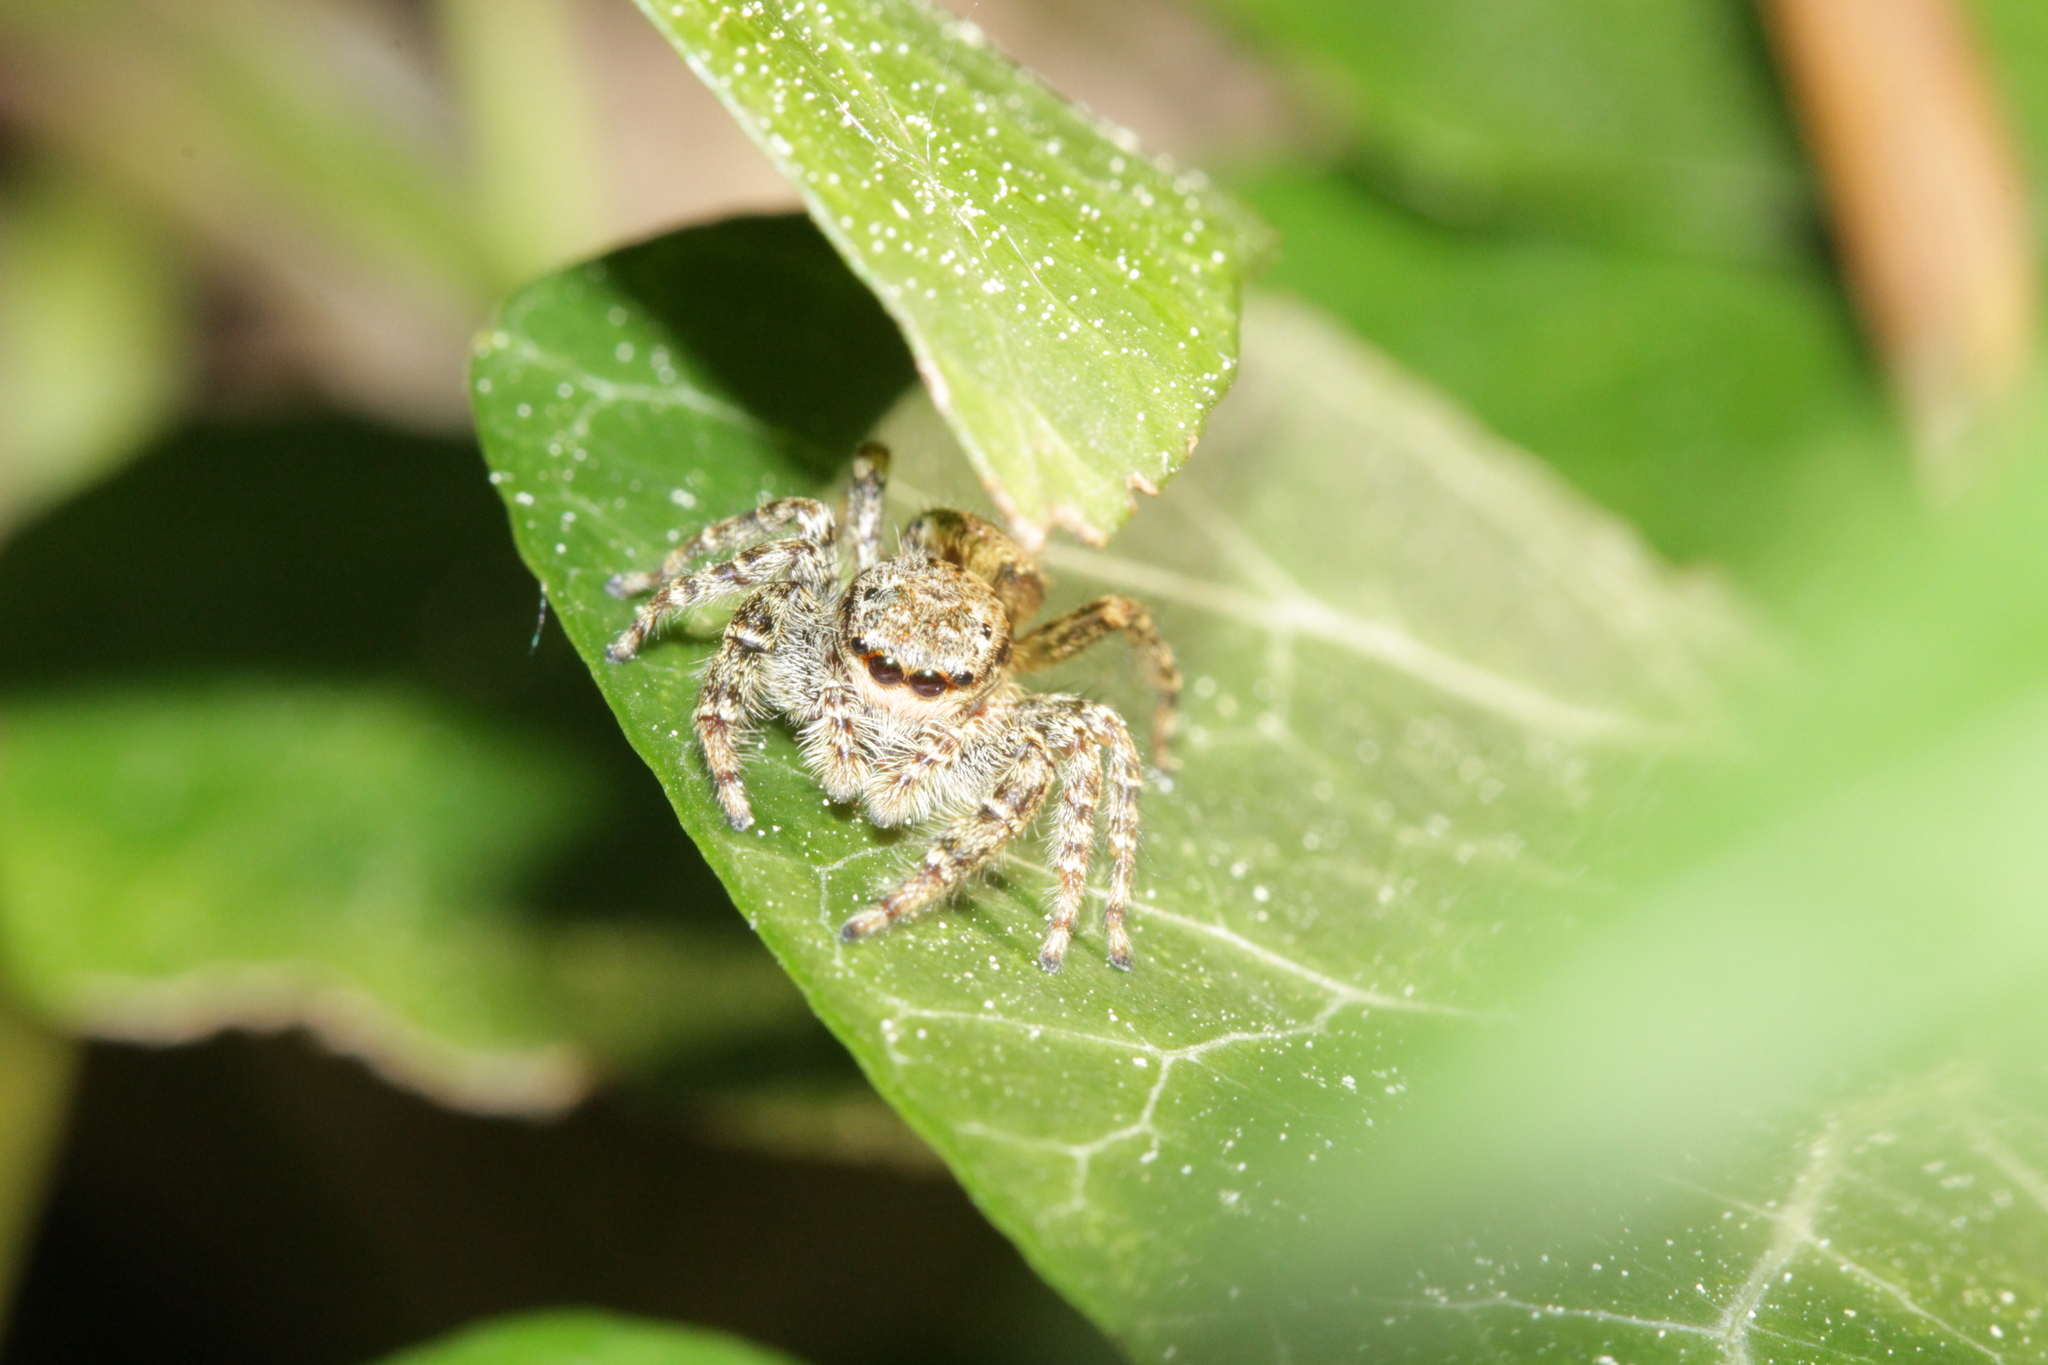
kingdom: Animalia
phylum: Arthropoda
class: Arachnida
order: Araneae
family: Salticidae
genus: Marpissa
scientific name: Marpissa muscosa
